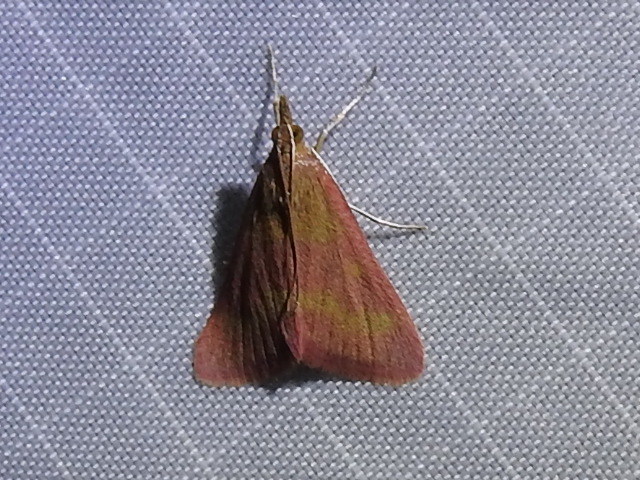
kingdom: Animalia
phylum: Arthropoda
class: Insecta
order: Lepidoptera
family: Crambidae
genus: Pyrausta
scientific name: Pyrausta laticlavia
